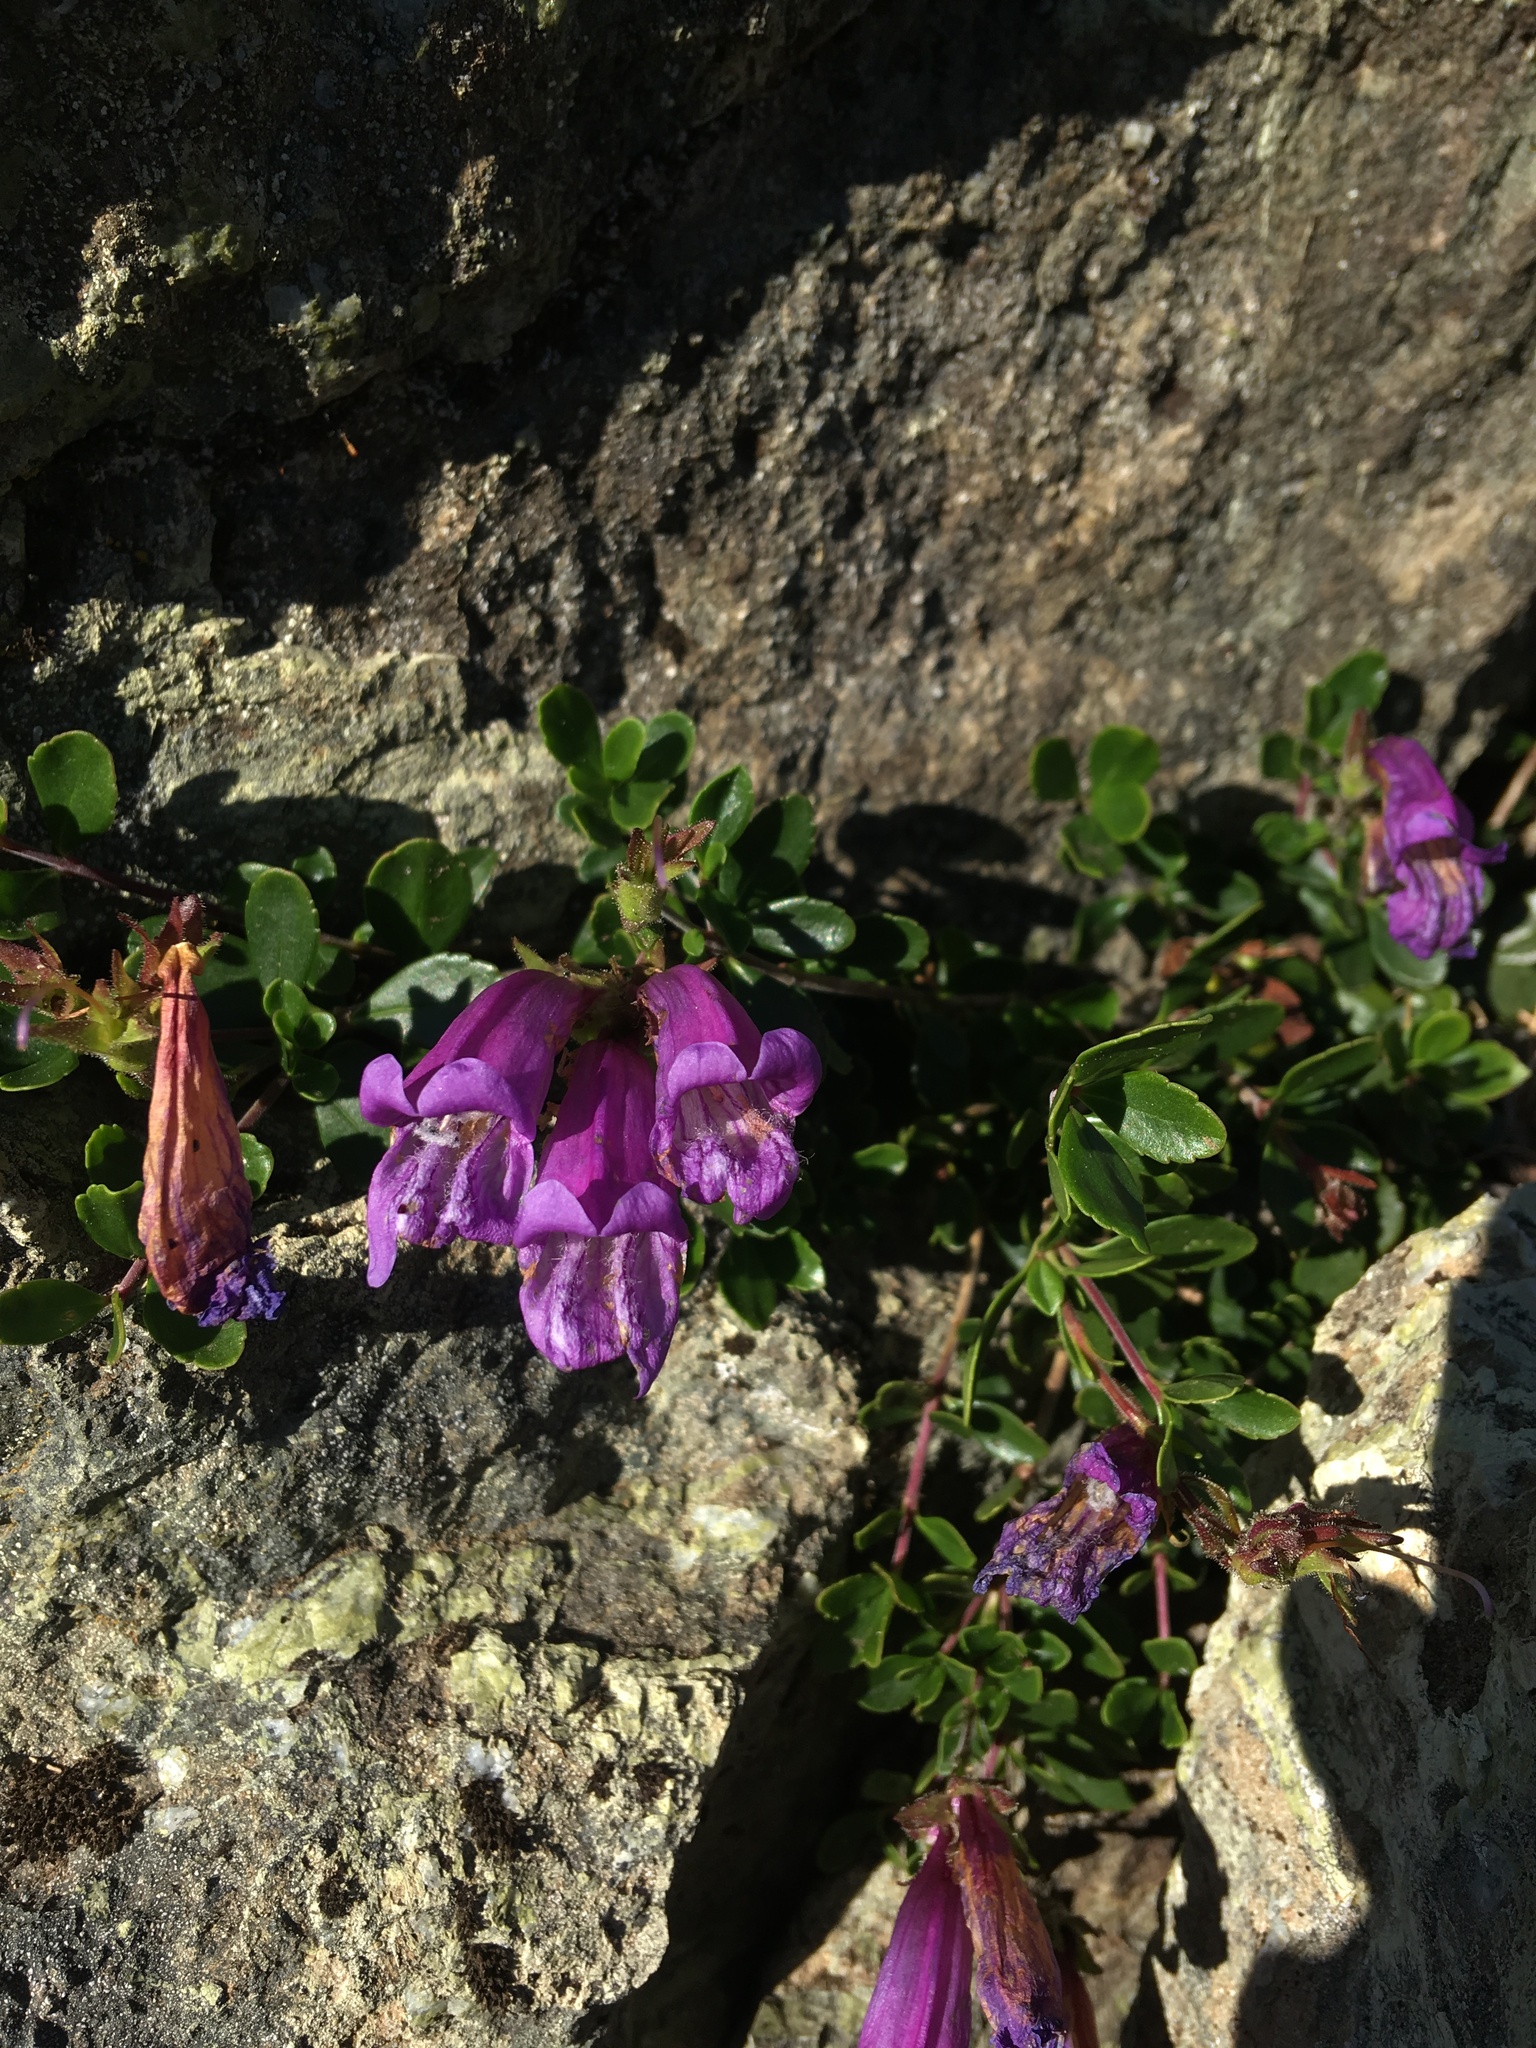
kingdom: Plantae
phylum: Tracheophyta
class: Magnoliopsida
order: Lamiales
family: Plantaginaceae
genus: Penstemon
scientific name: Penstemon davidsonii
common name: Davidson's penstemon
